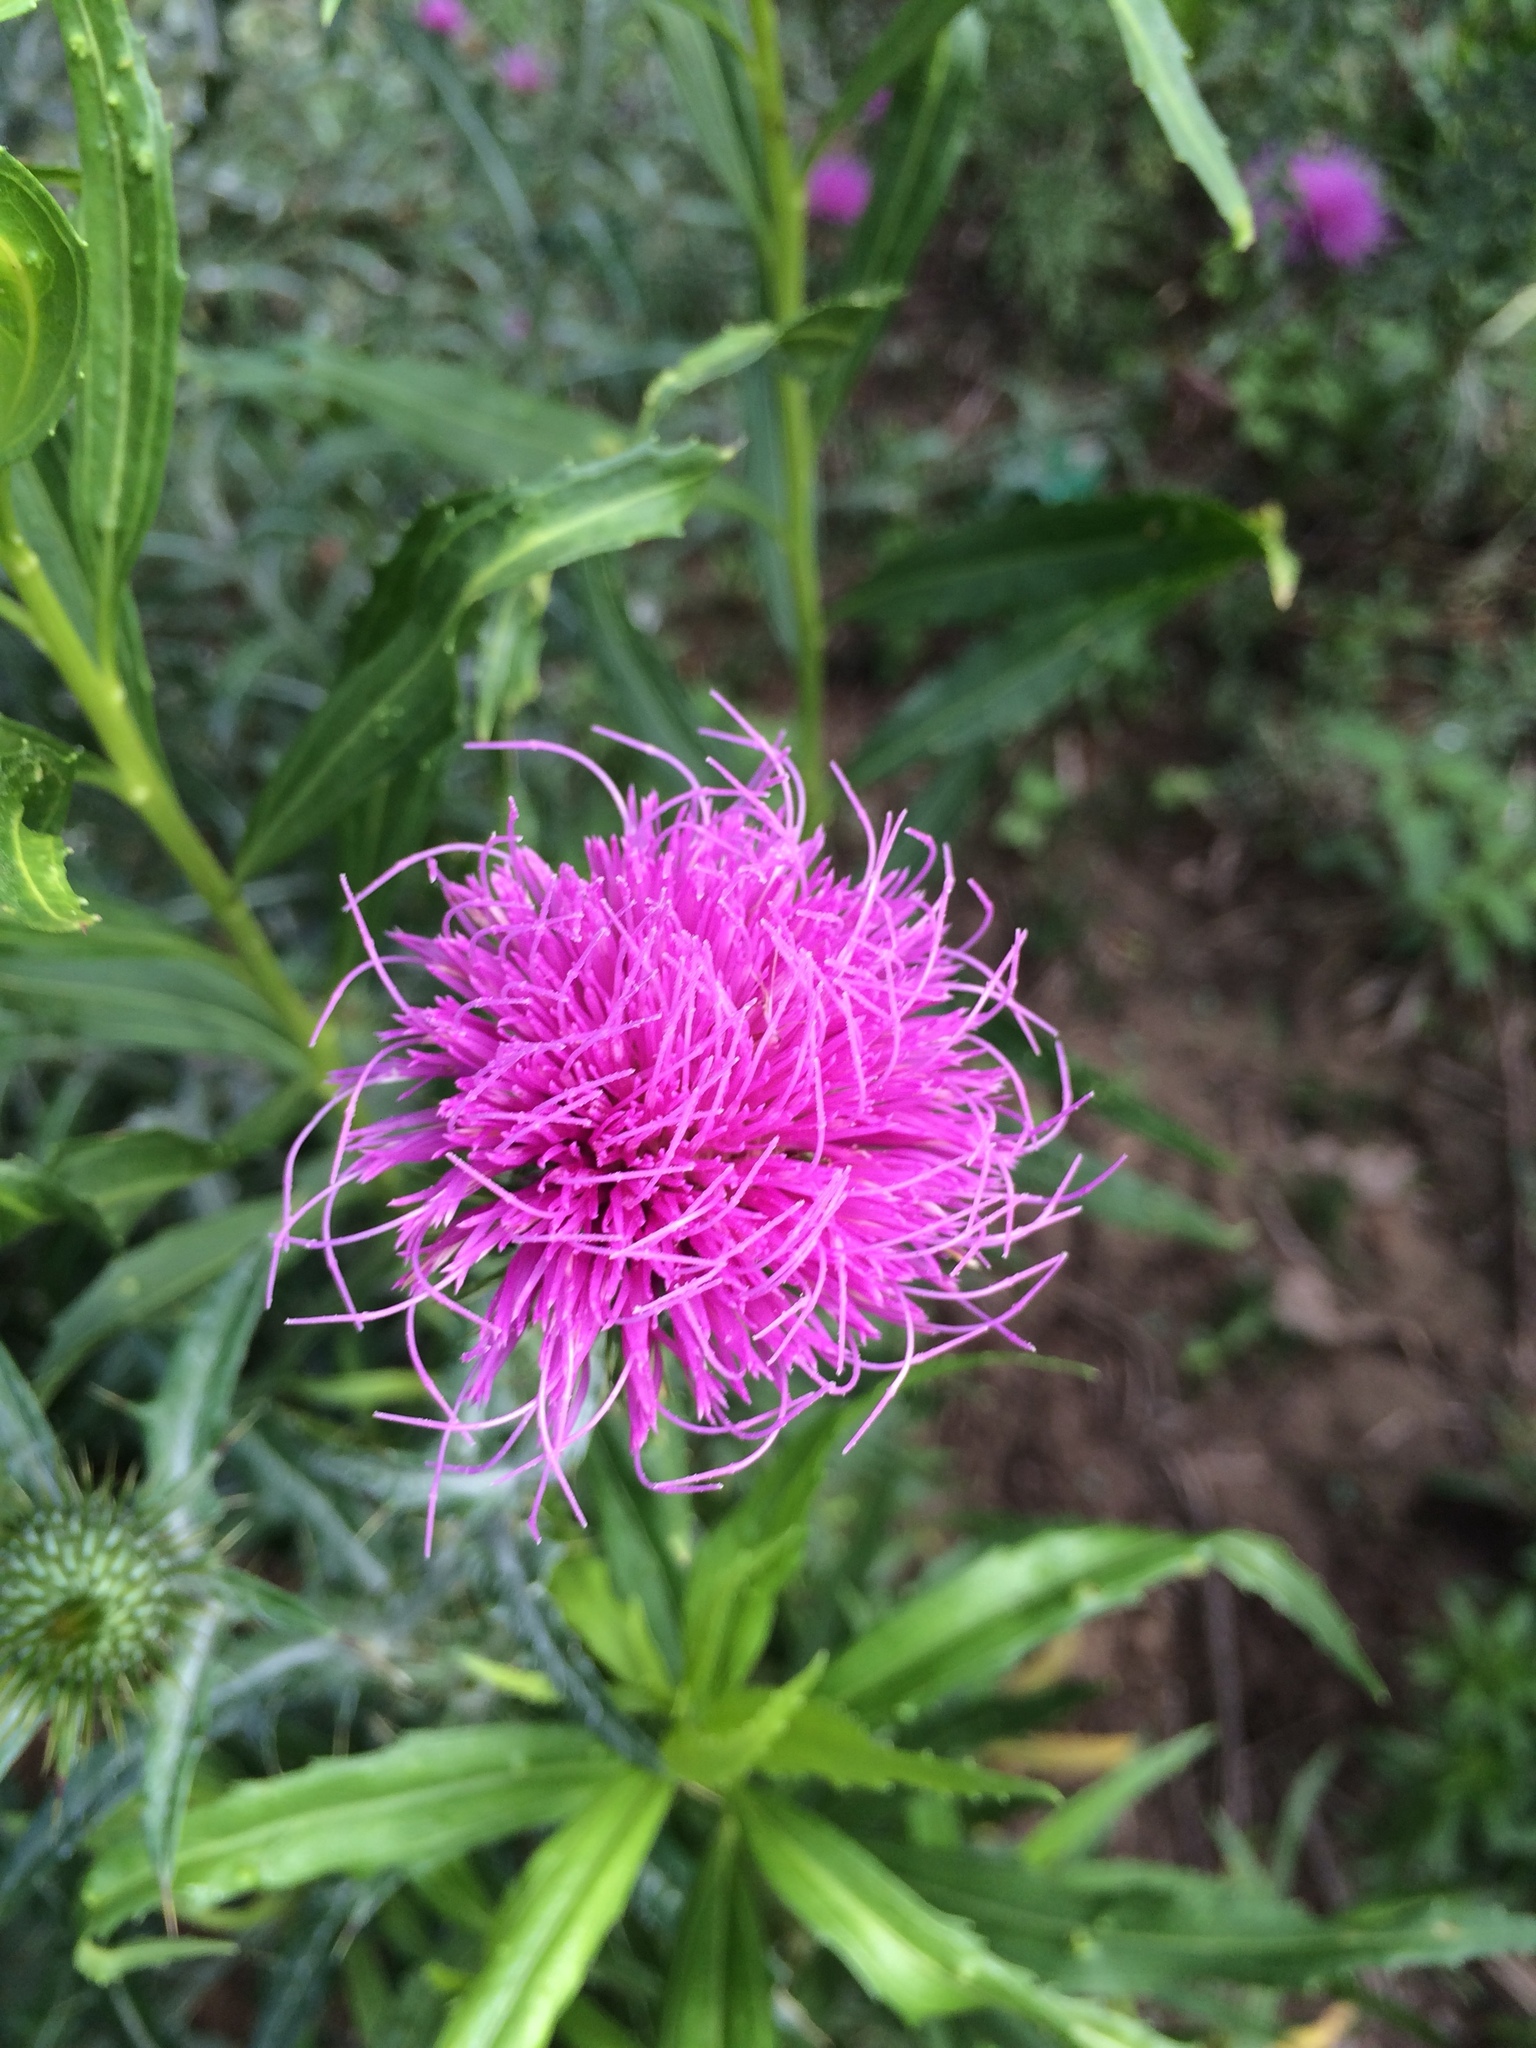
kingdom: Plantae
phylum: Tracheophyta
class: Magnoliopsida
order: Asterales
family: Asteraceae
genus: Cirsium
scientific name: Cirsium texanum
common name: Texas purple thistle
